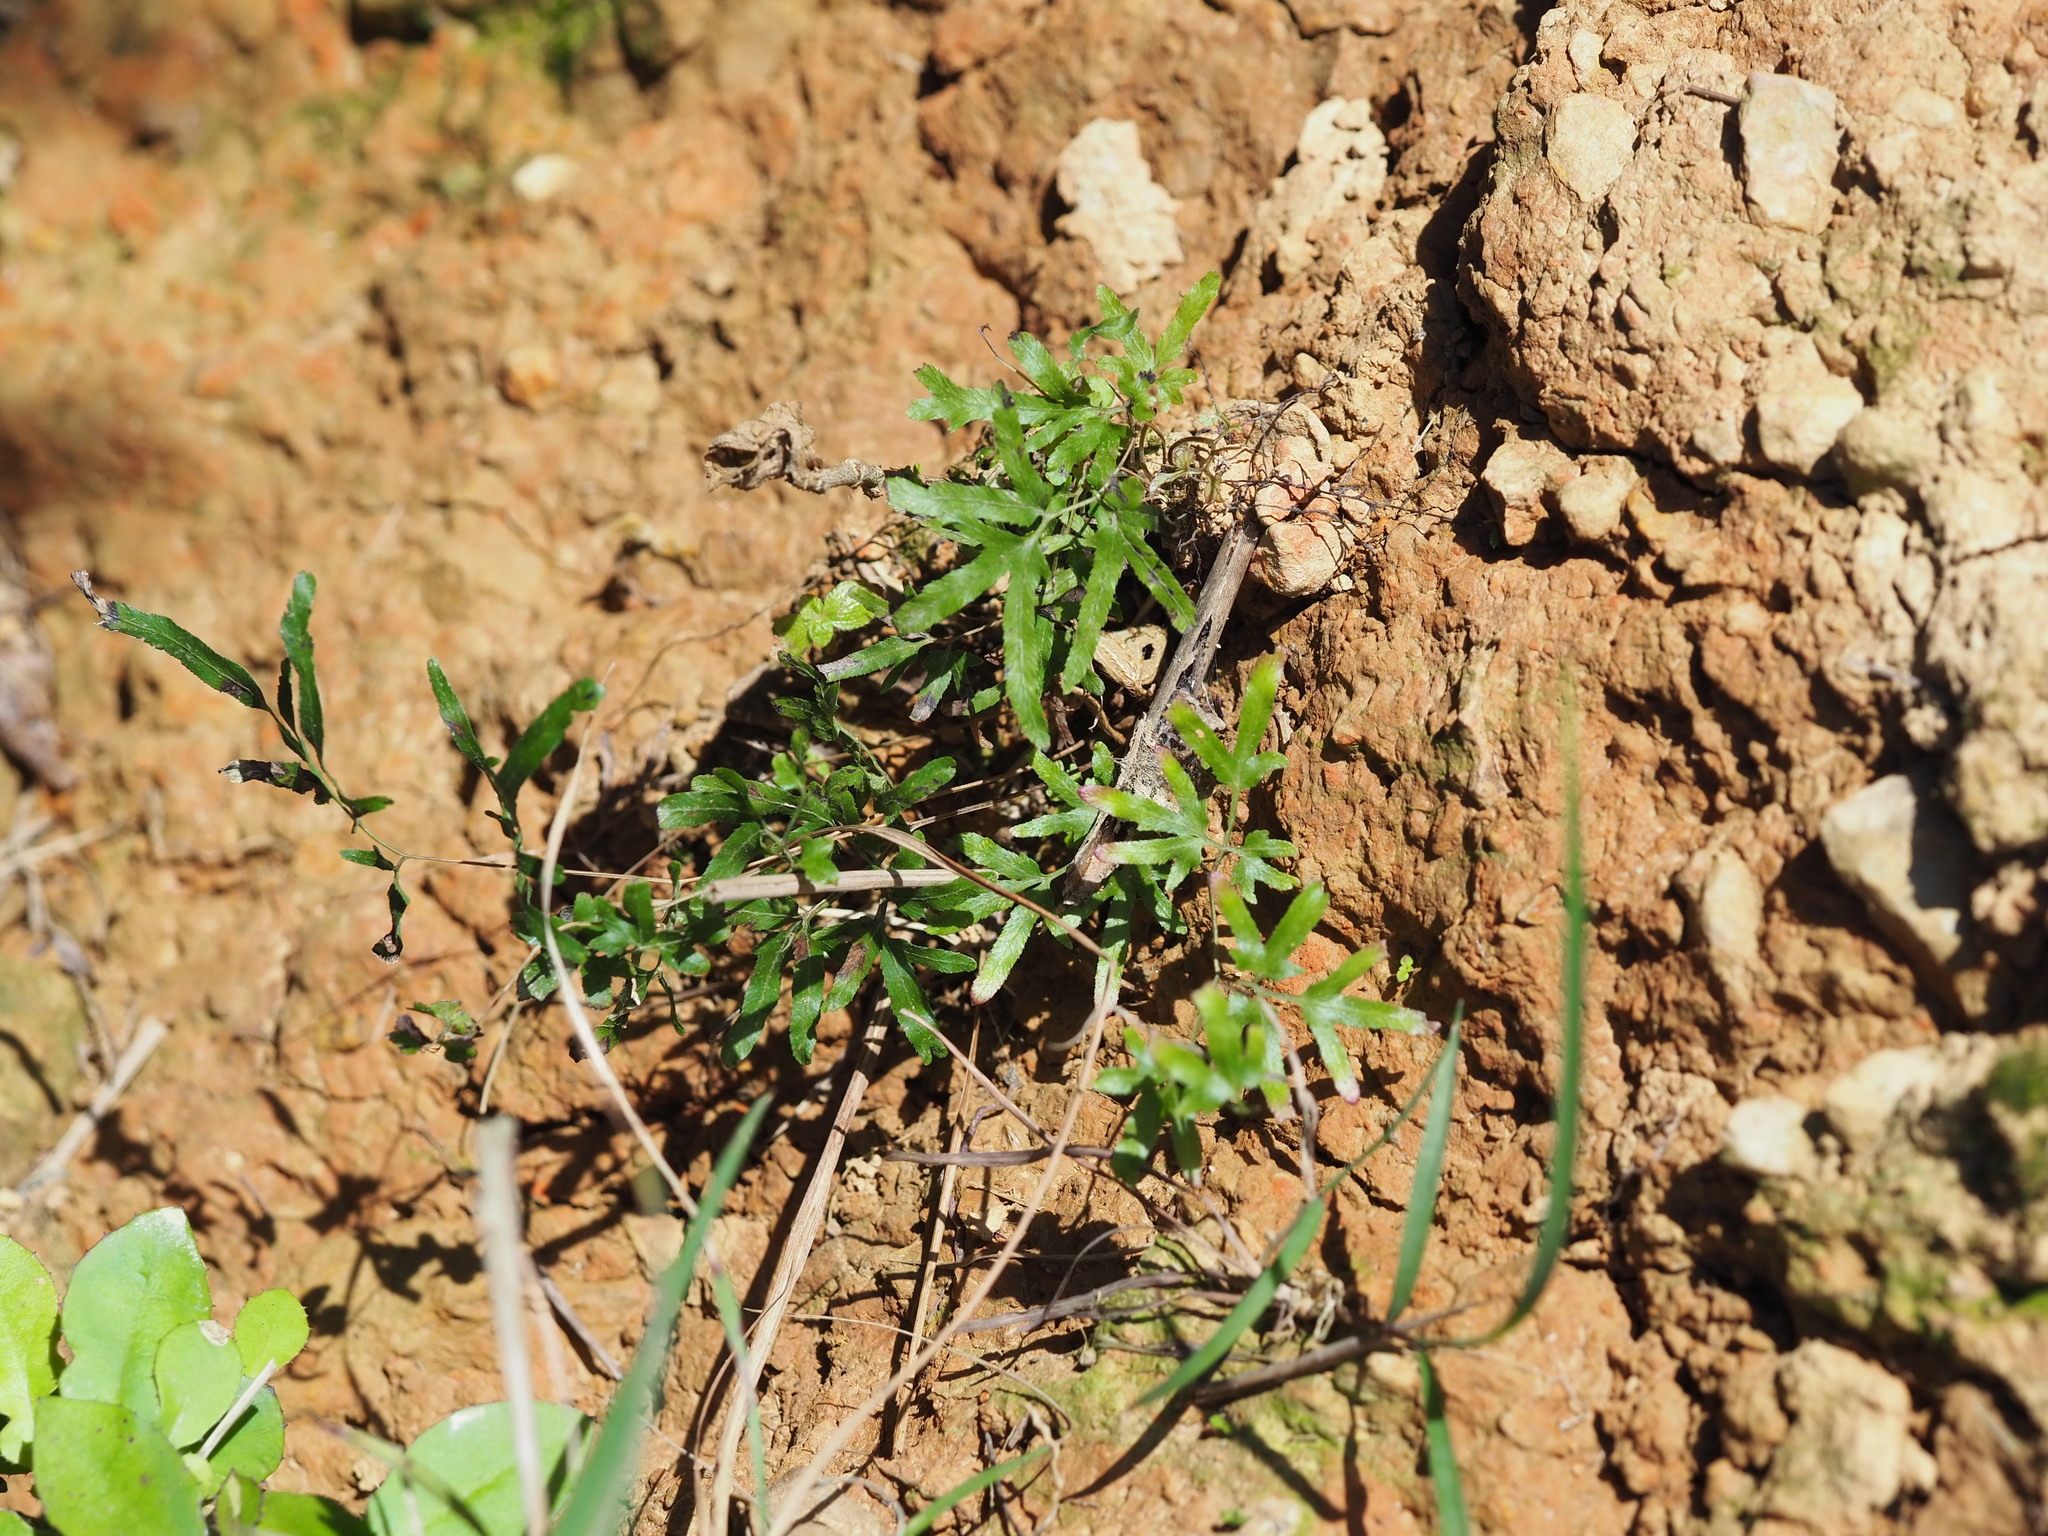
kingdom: Plantae
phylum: Tracheophyta
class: Polypodiopsida
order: Schizaeales
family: Lygodiaceae
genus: Lygodium
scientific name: Lygodium japonicum
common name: Japanese climbing fern
